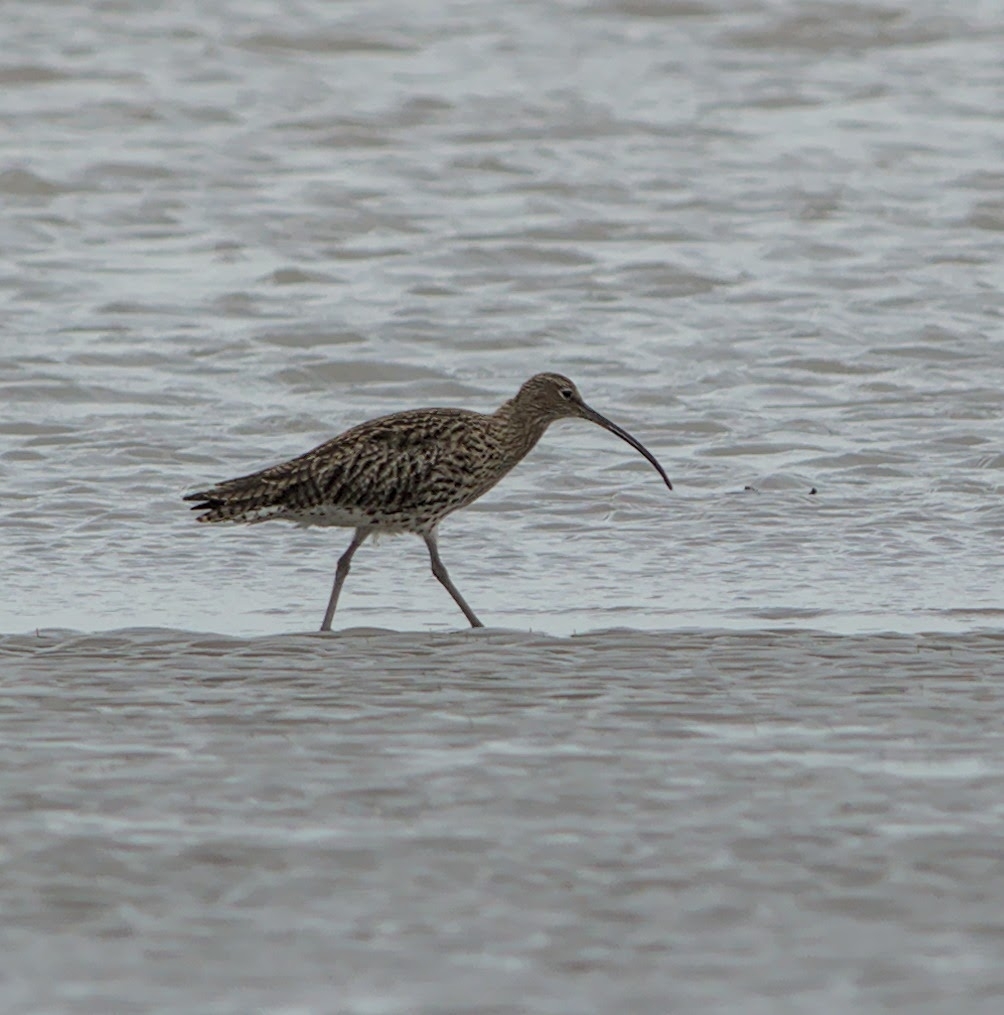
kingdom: Animalia
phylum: Chordata
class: Aves
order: Charadriiformes
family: Scolopacidae
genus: Numenius
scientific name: Numenius arquata
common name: Eurasian curlew
